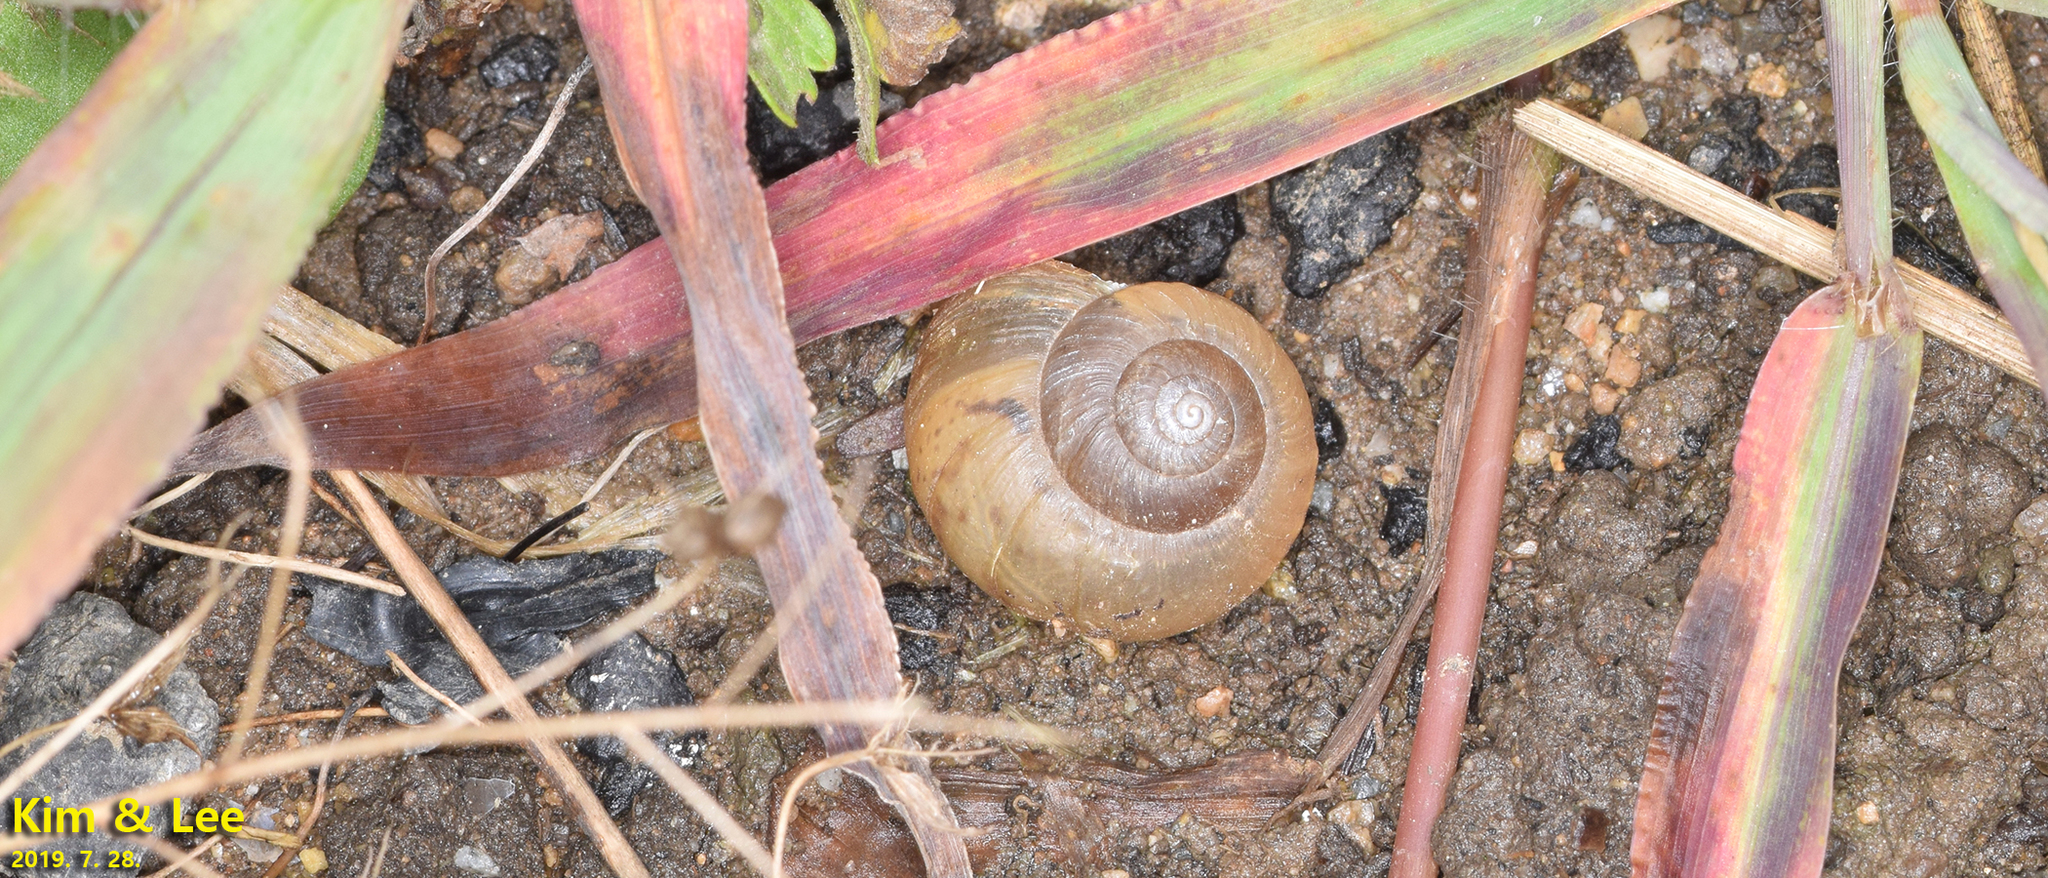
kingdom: Animalia
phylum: Mollusca
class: Gastropoda
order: Stylommatophora
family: Camaenidae
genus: Acusta
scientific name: Acusta redfieldi
